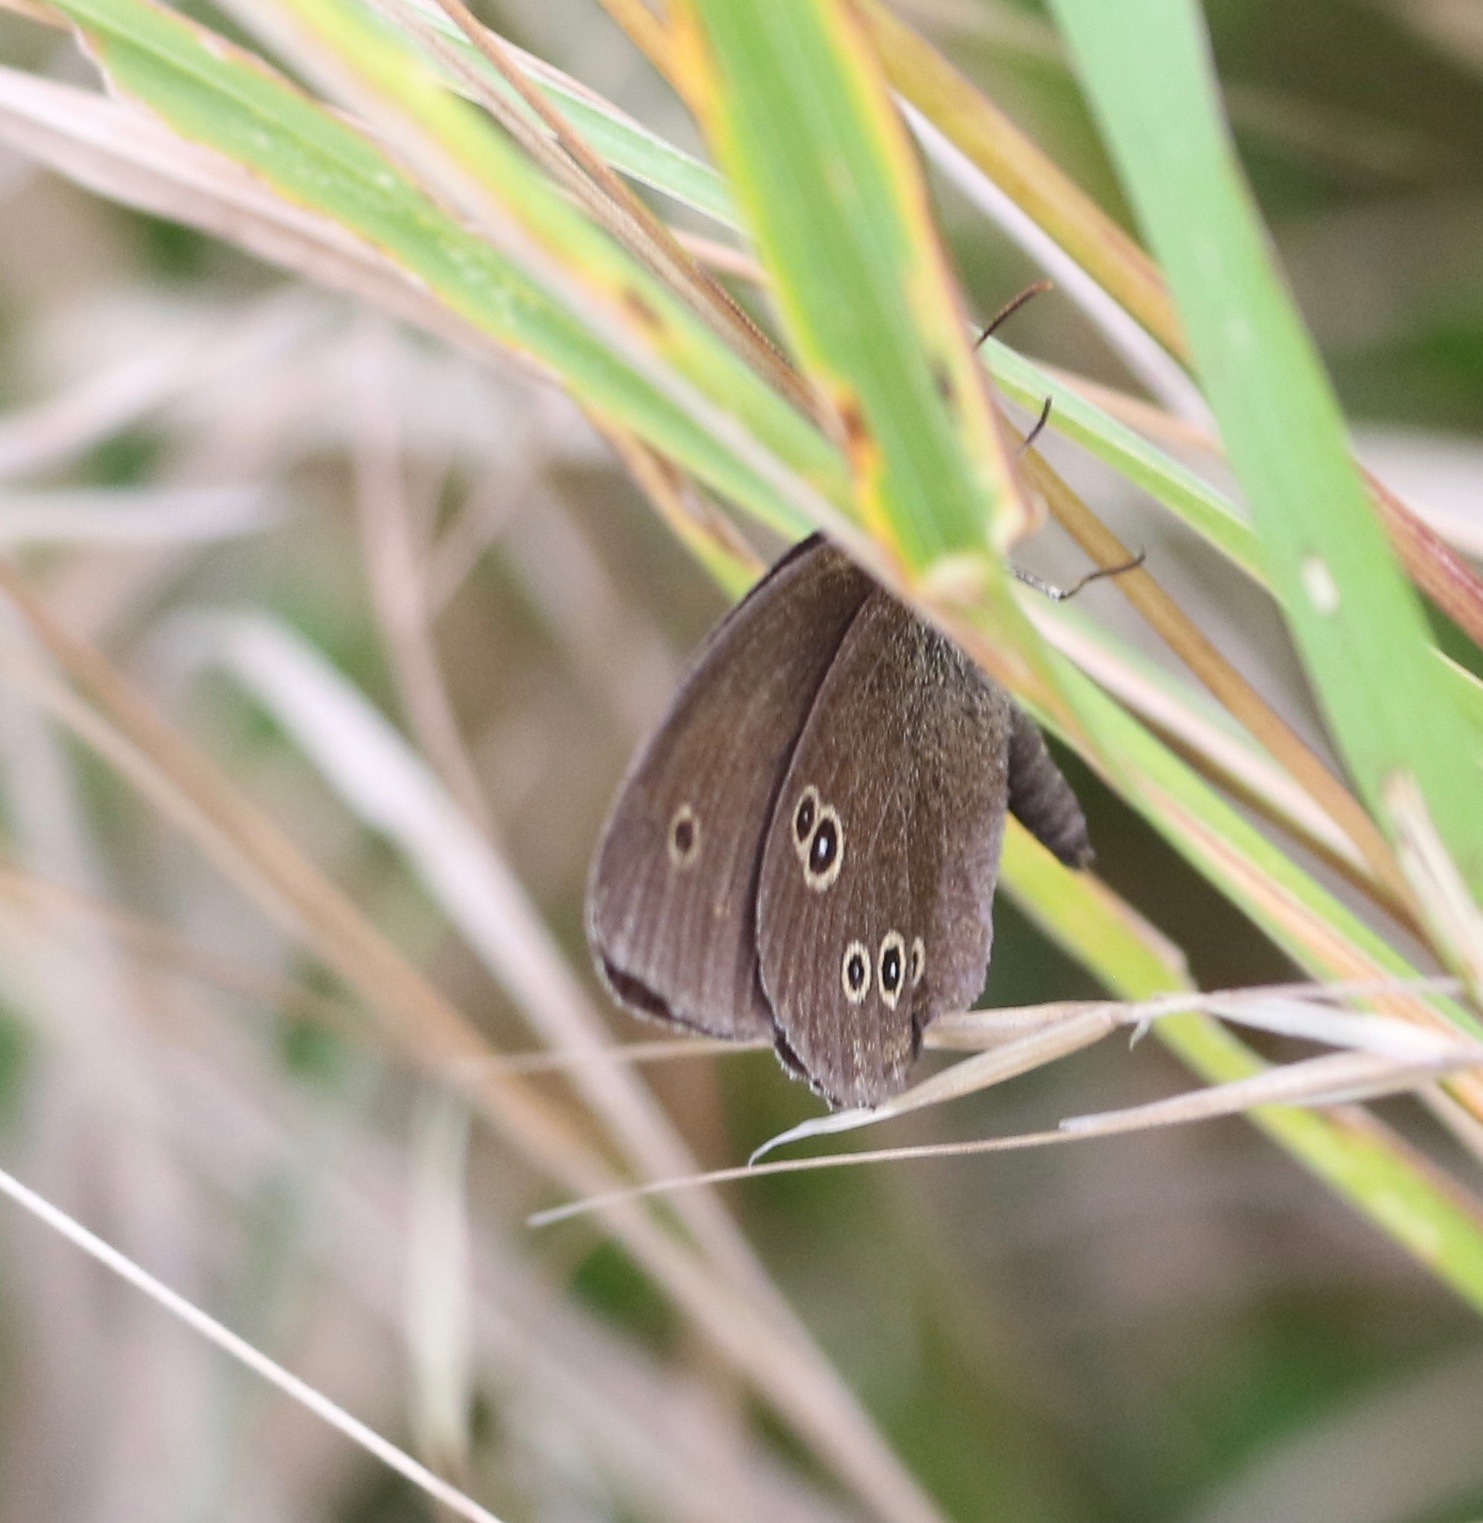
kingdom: Animalia
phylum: Arthropoda
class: Insecta
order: Lepidoptera
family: Nymphalidae
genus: Aphantopus
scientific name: Aphantopus hyperantus
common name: Ringlet
